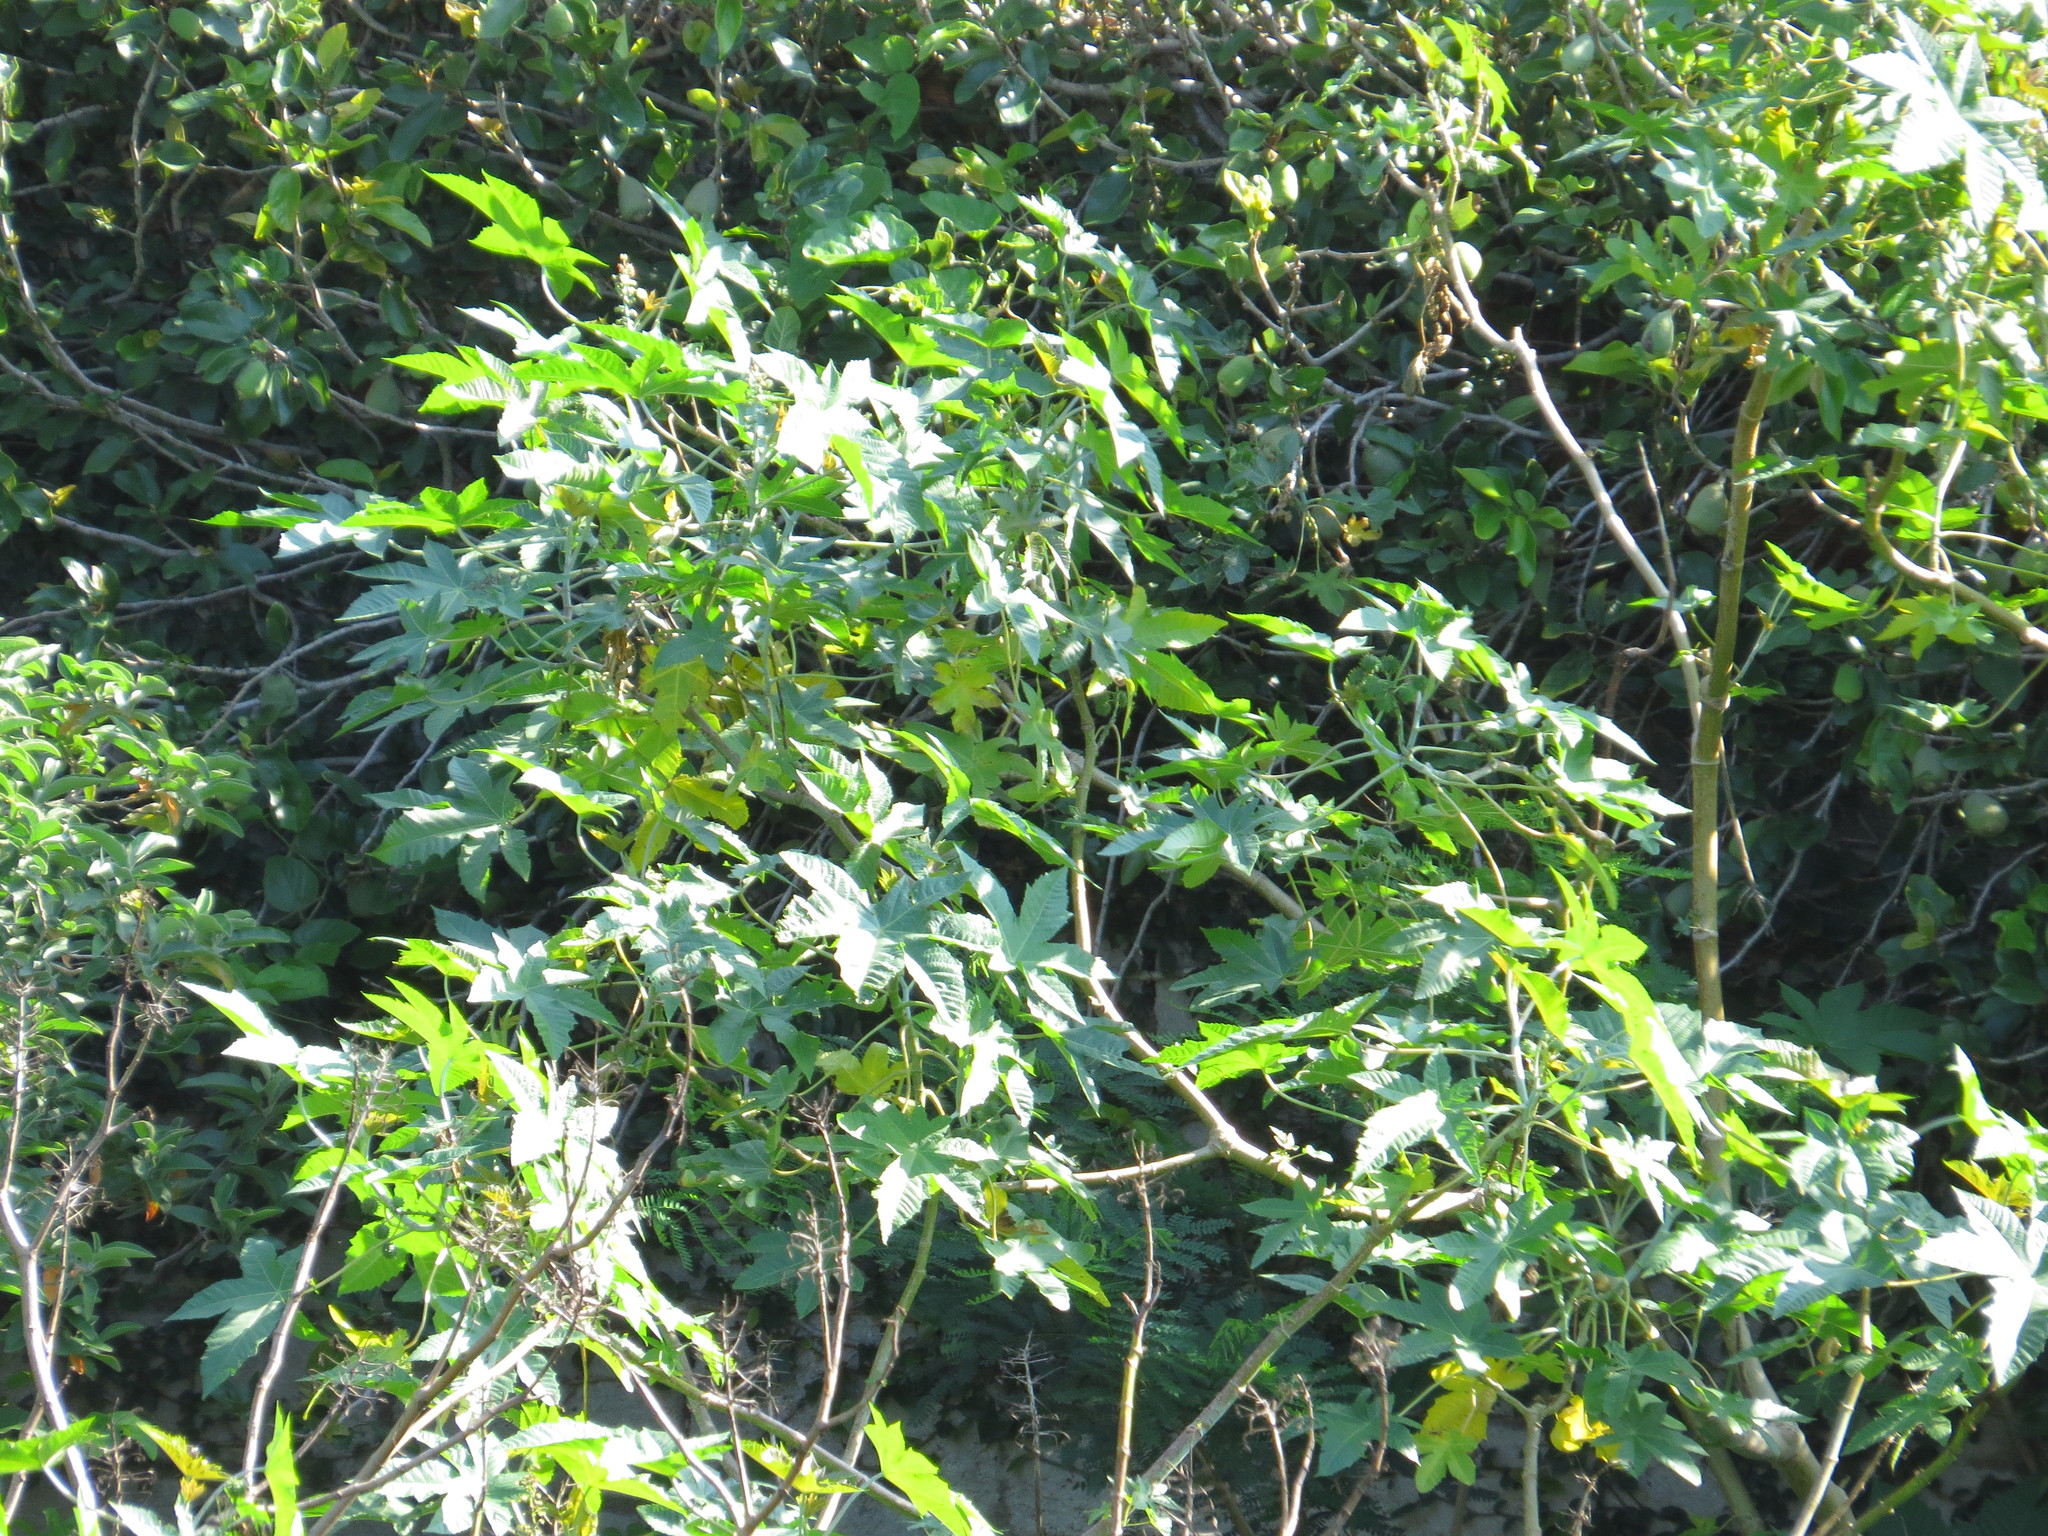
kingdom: Plantae
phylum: Tracheophyta
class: Magnoliopsida
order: Malpighiales
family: Euphorbiaceae
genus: Ricinus
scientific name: Ricinus communis
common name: Castor-oil-plant
